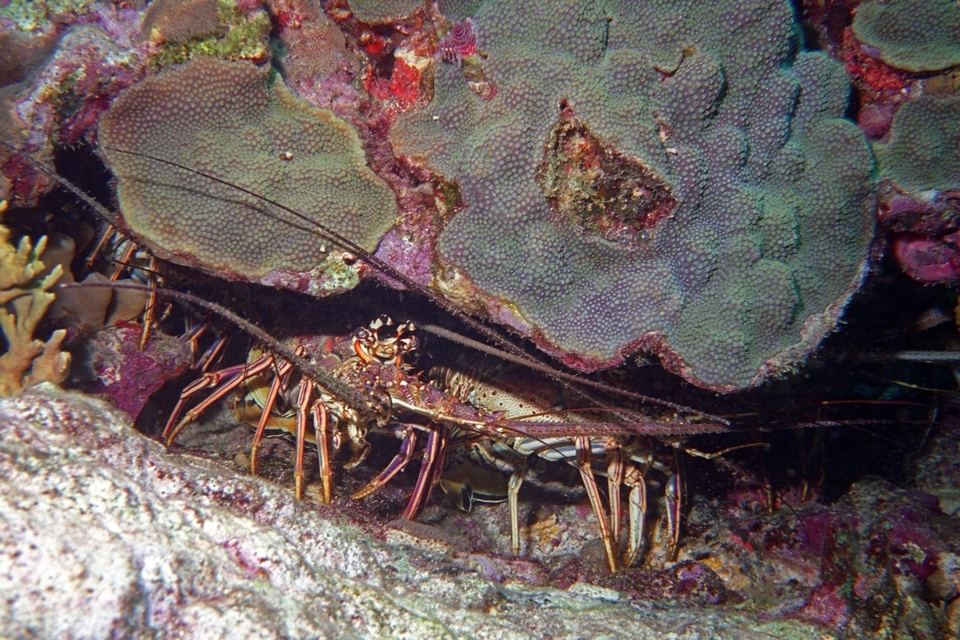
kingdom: Animalia
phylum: Arthropoda
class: Malacostraca
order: Decapoda
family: Palinuridae
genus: Panulirus
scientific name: Panulirus argus
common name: Caribbean spiny lobster
